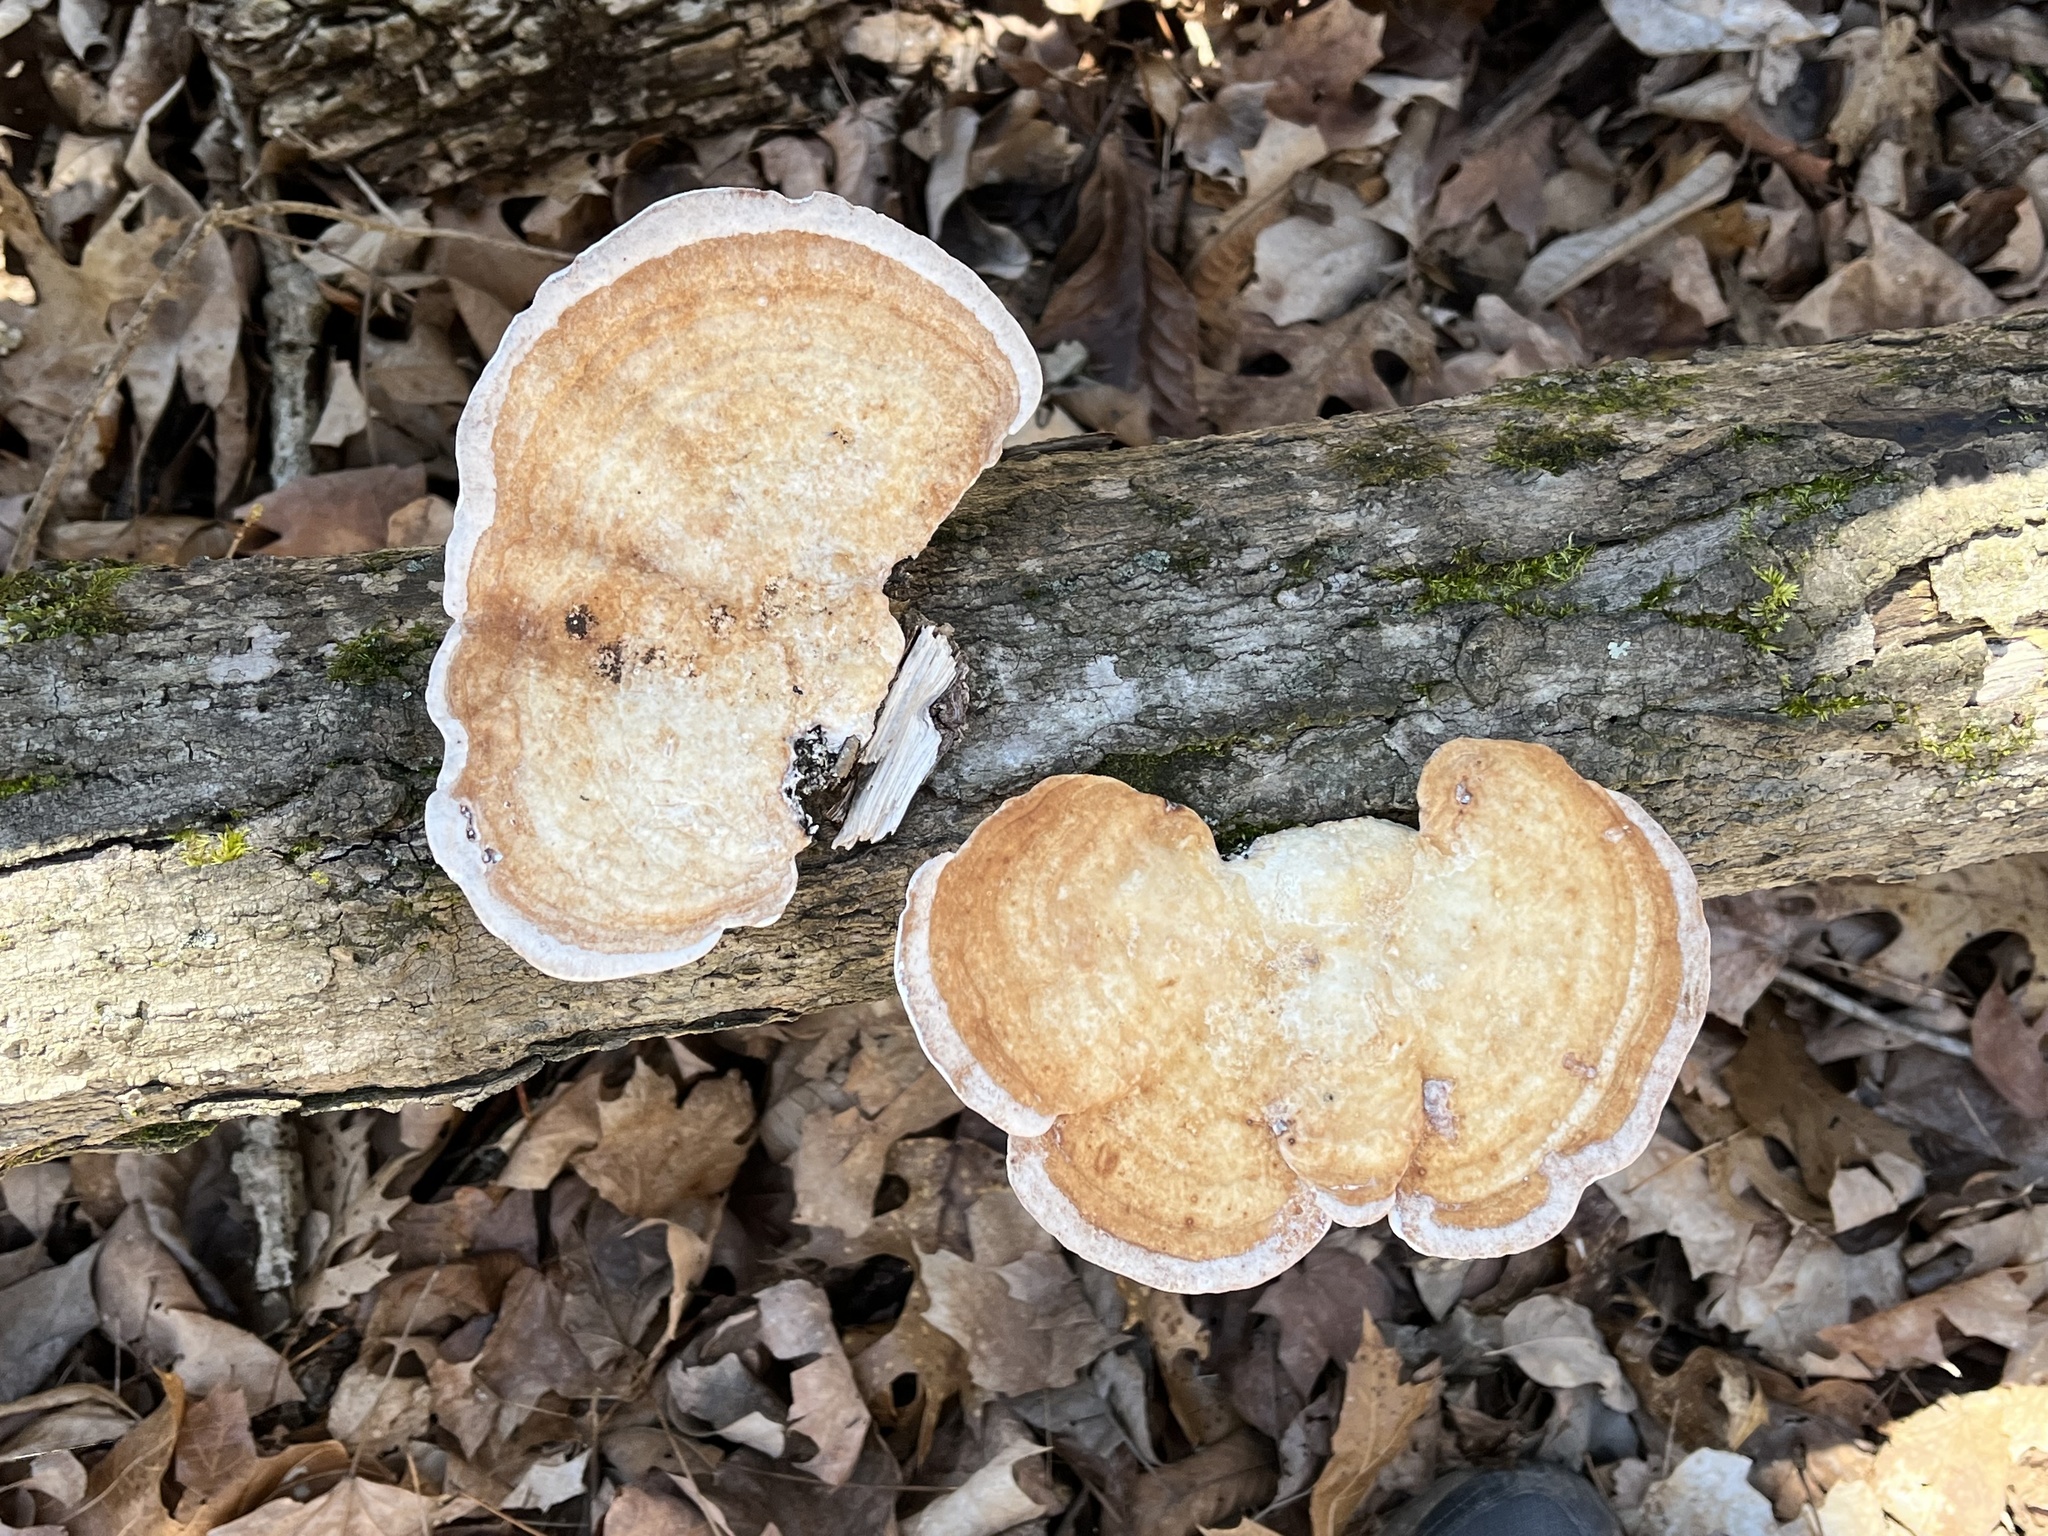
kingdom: Fungi
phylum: Basidiomycota
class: Agaricomycetes
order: Polyporales
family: Polyporaceae
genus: Trametes
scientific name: Trametes
